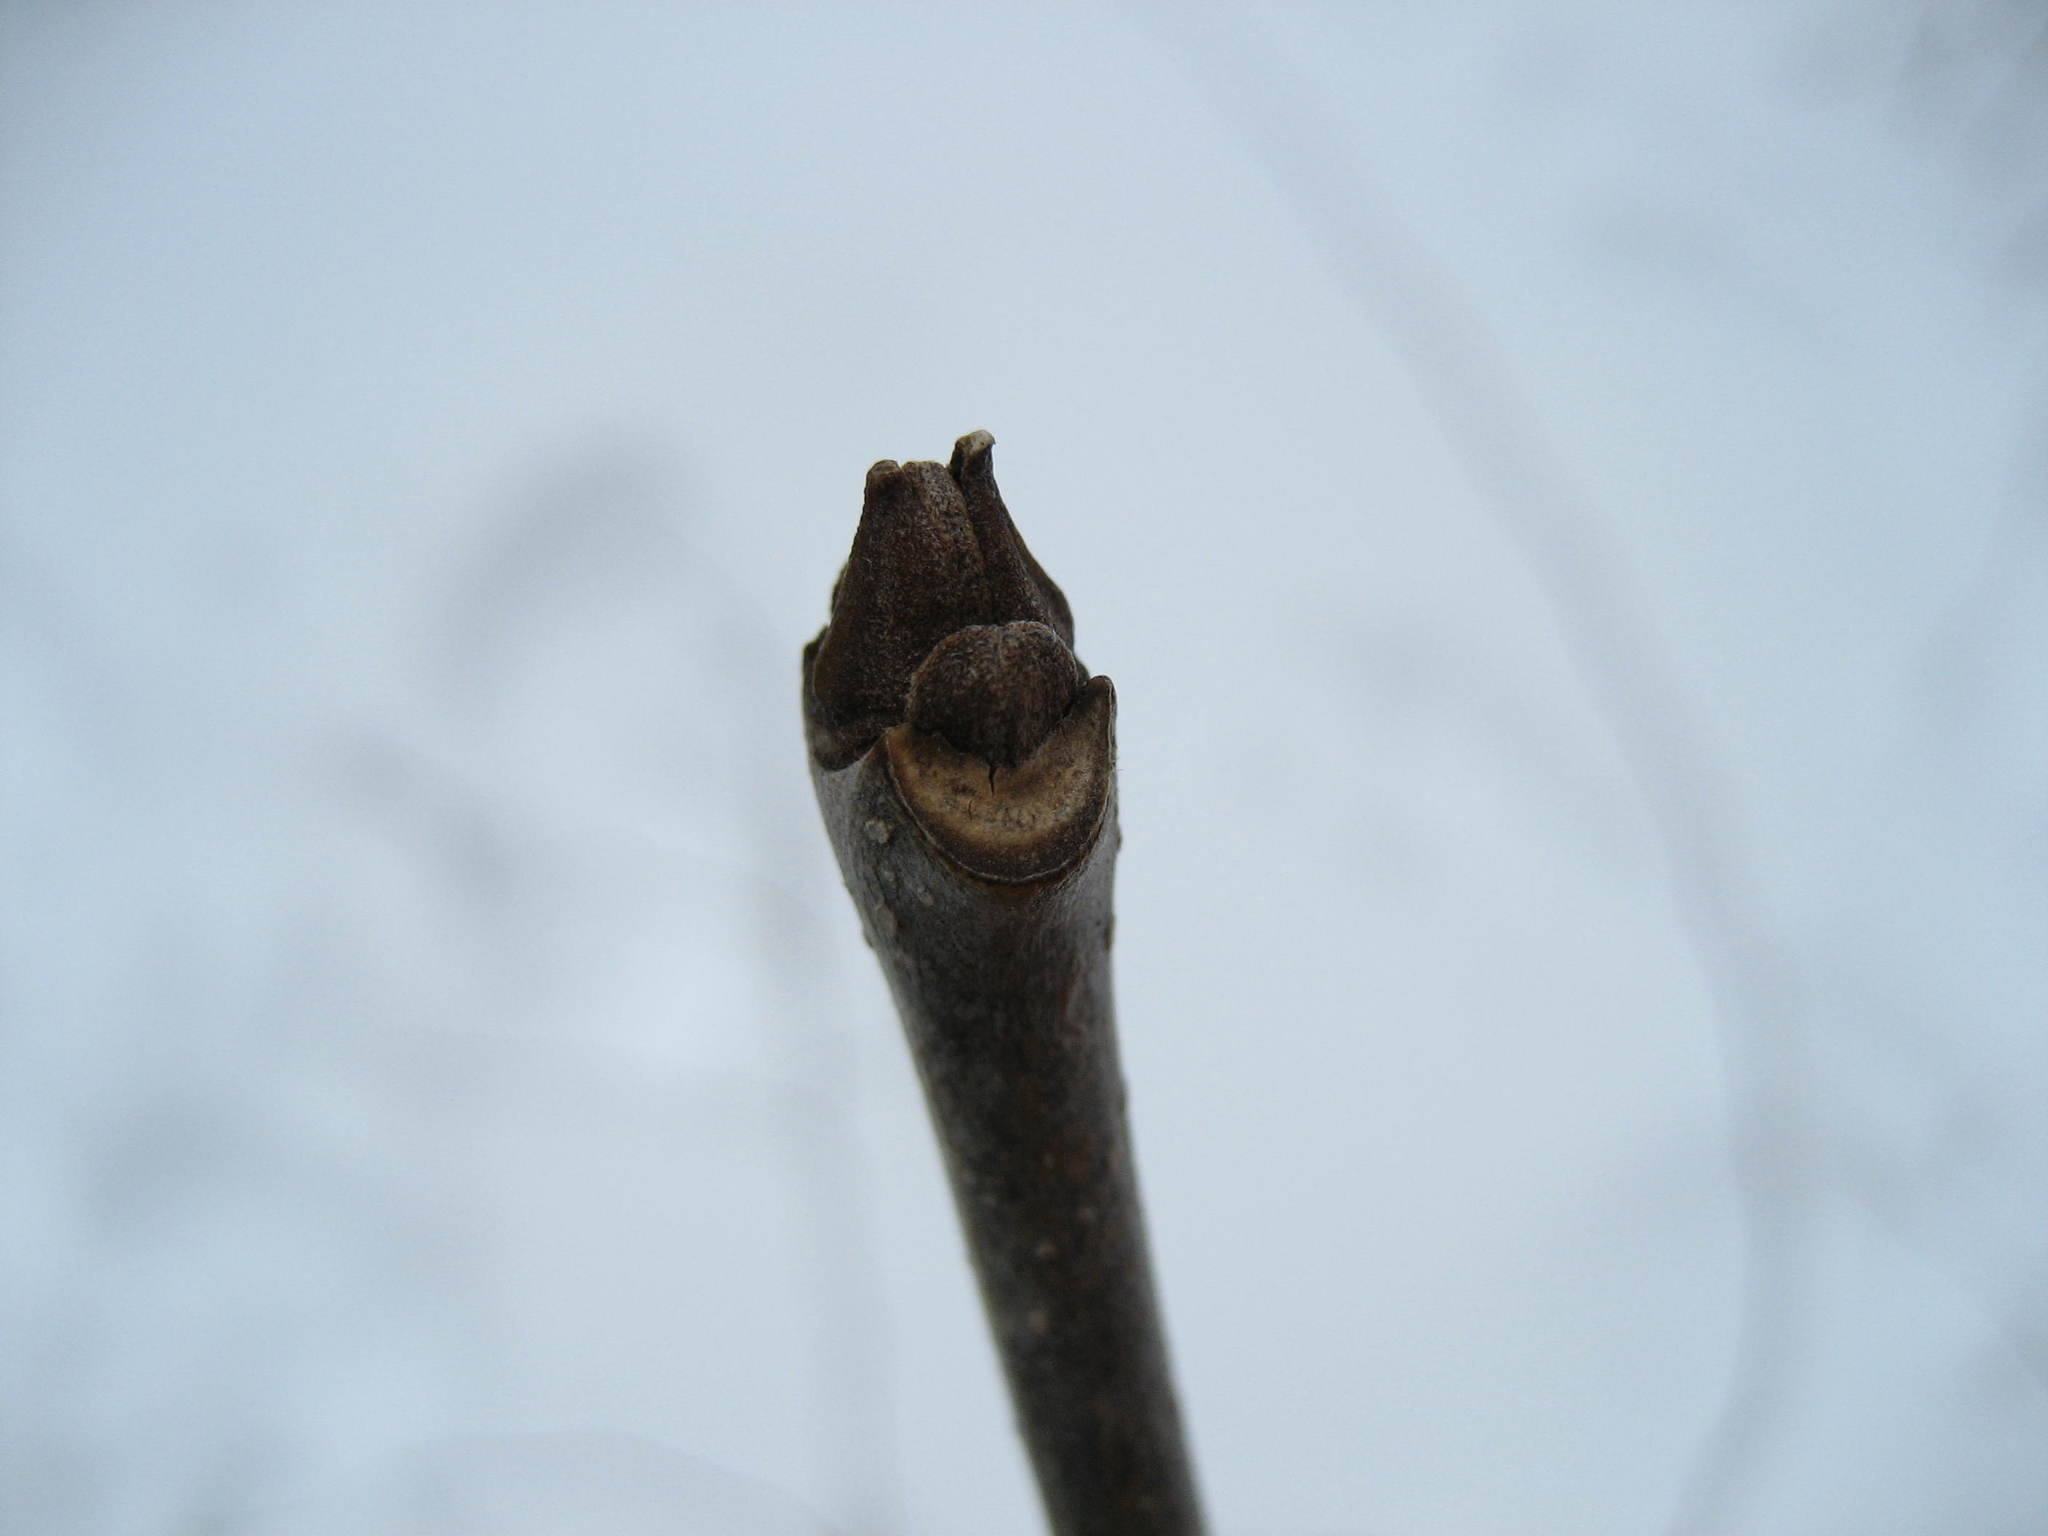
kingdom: Plantae
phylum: Tracheophyta
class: Magnoliopsida
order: Lamiales
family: Oleaceae
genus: Fraxinus
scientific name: Fraxinus pennsylvanica
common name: Green ash
